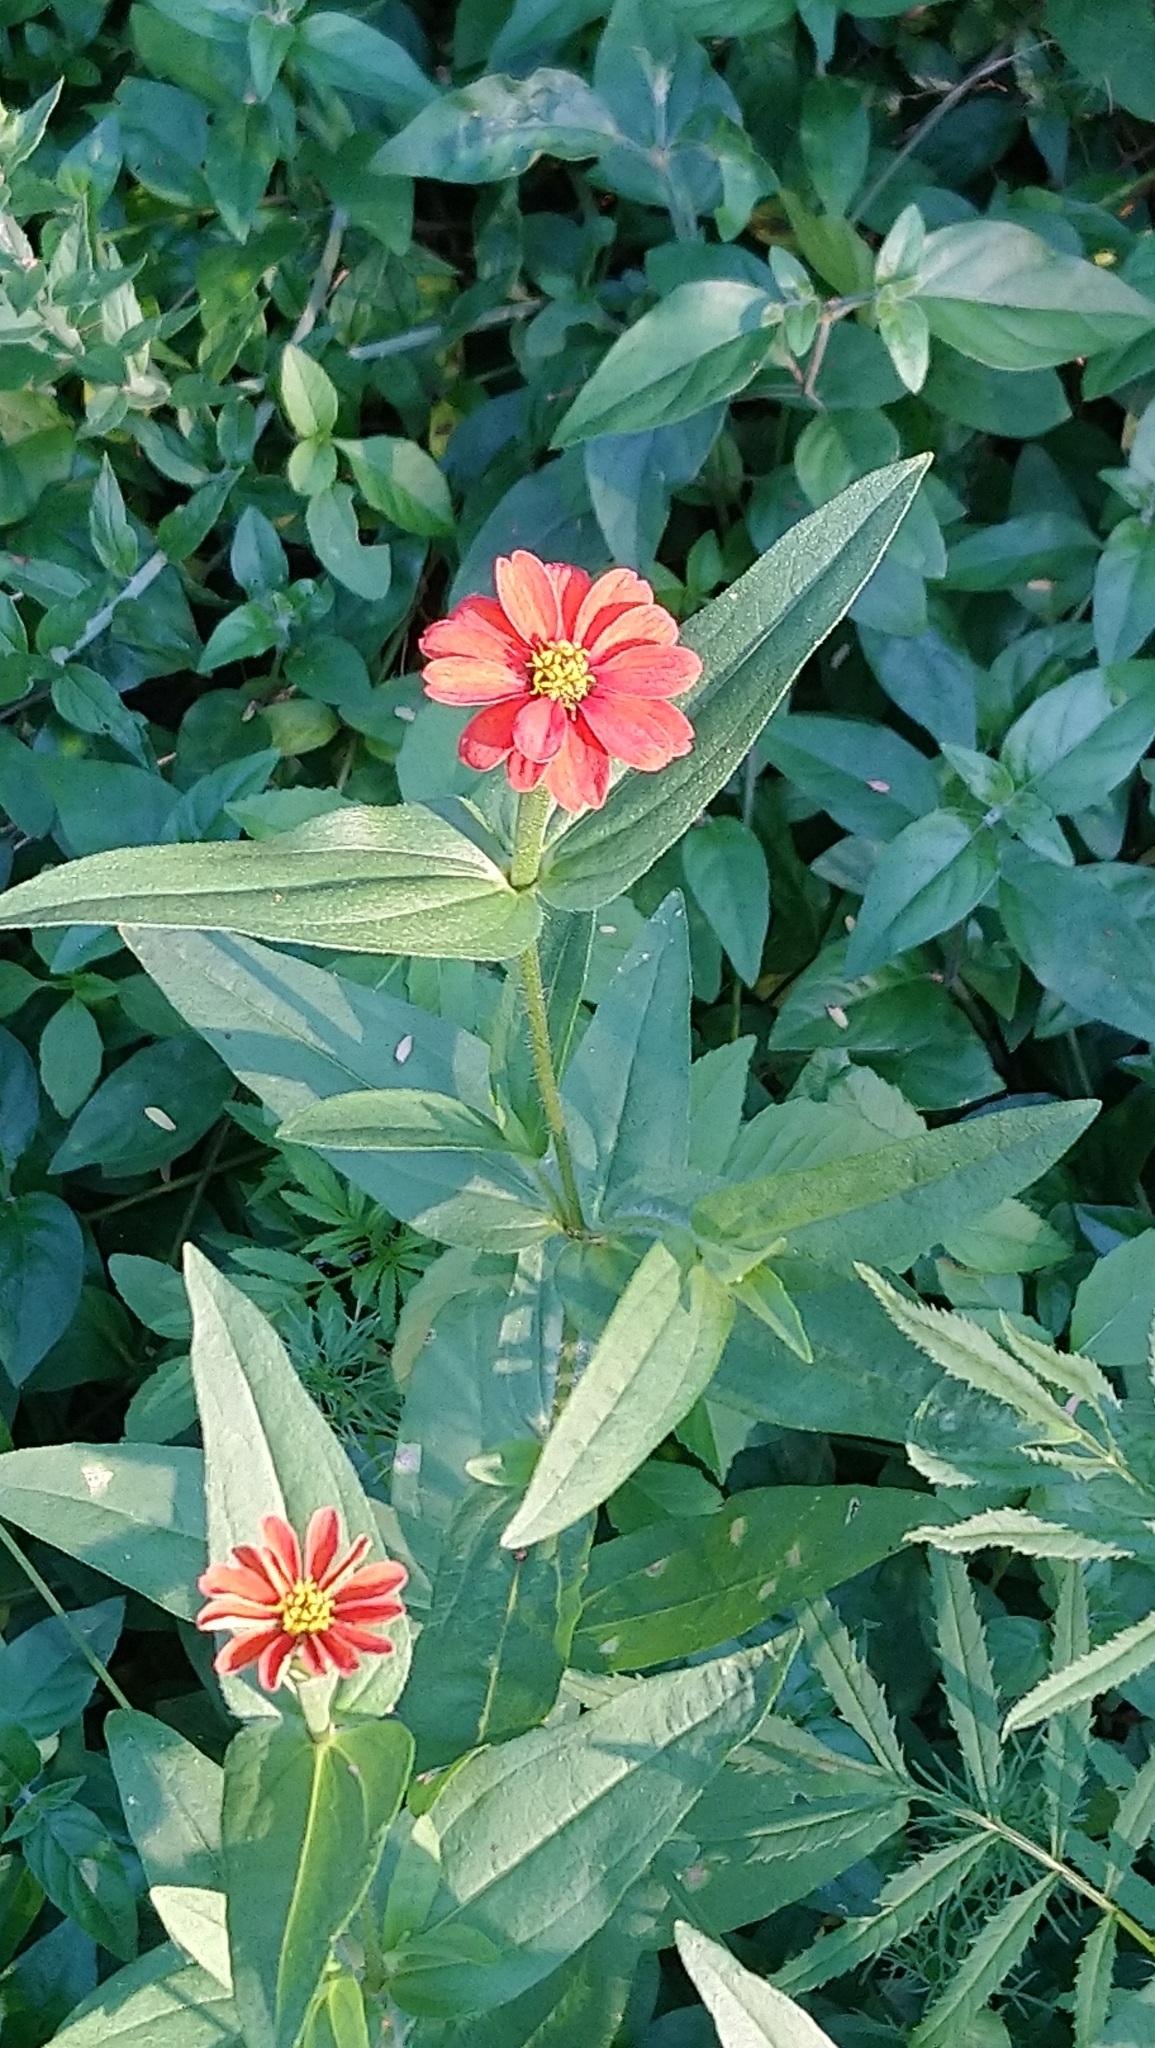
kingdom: Plantae
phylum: Tracheophyta
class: Magnoliopsida
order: Asterales
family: Asteraceae
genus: Zinnia
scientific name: Zinnia peruviana
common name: Peruvian zinnia
